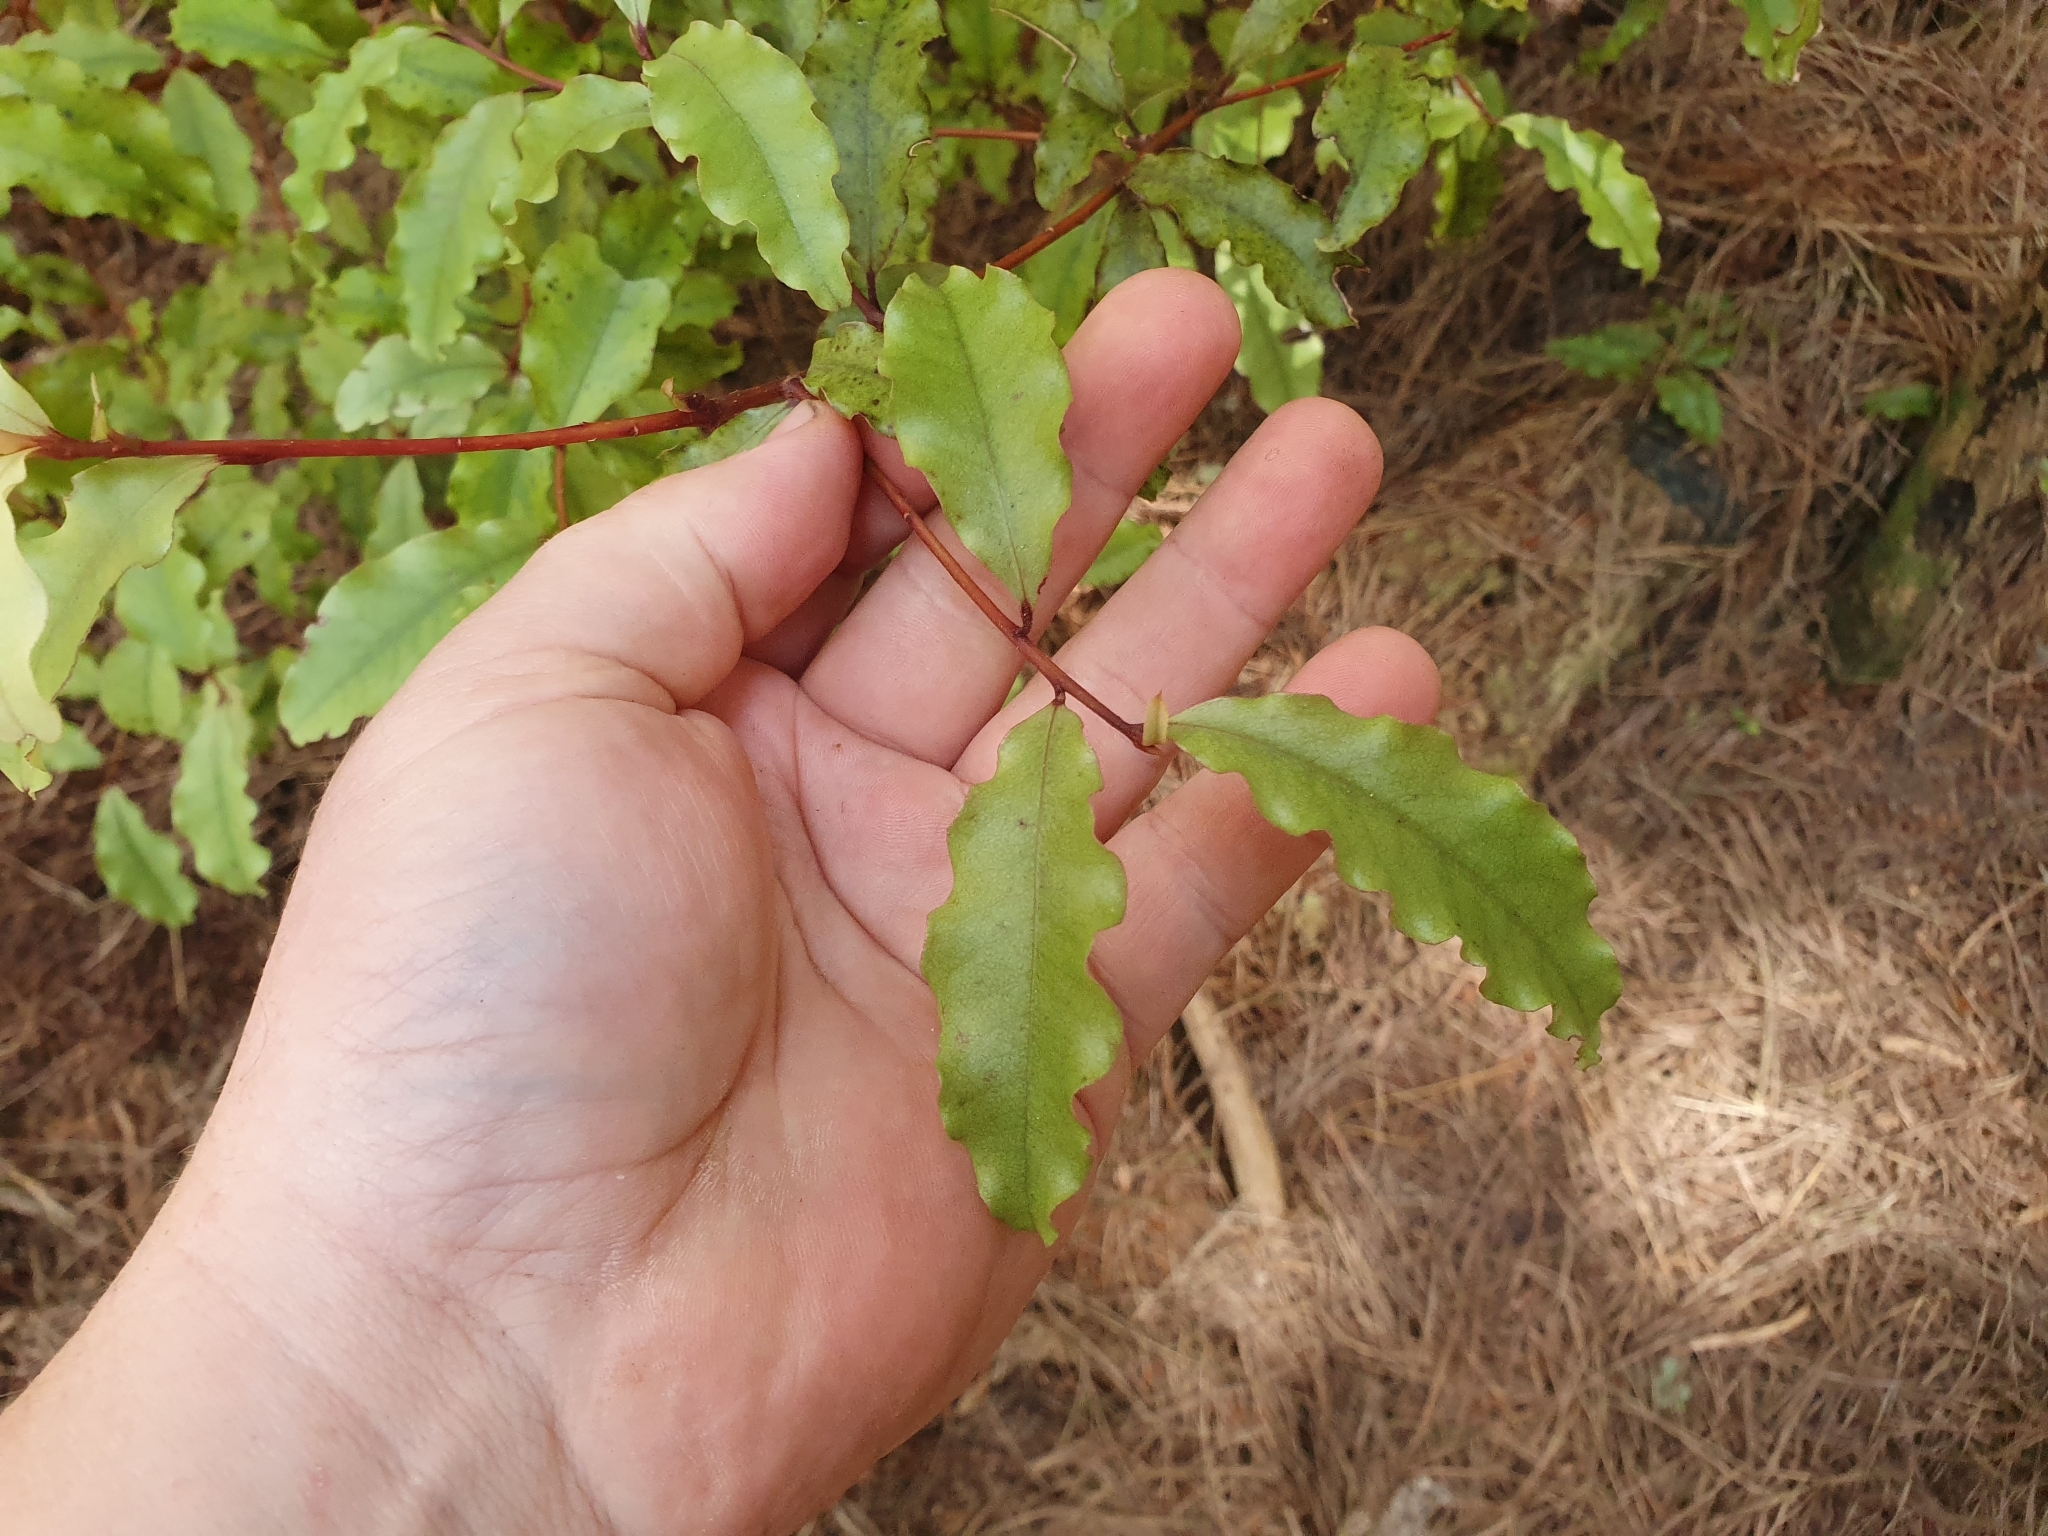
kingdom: Plantae
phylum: Tracheophyta
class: Magnoliopsida
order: Ericales
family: Primulaceae
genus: Myrsine
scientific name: Myrsine australis
